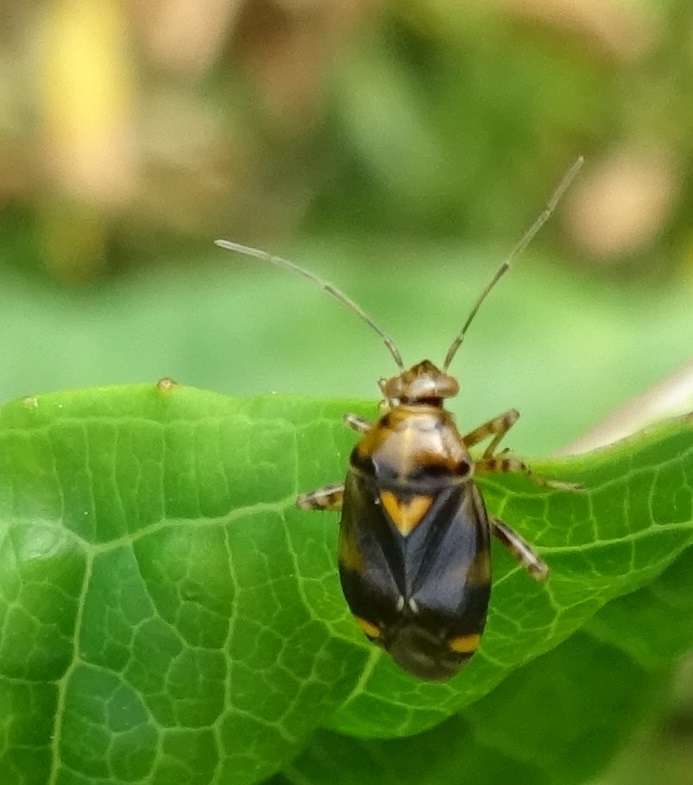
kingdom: Animalia
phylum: Arthropoda
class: Insecta
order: Hemiptera
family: Miridae
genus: Liocoris
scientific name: Liocoris tripustulatus
